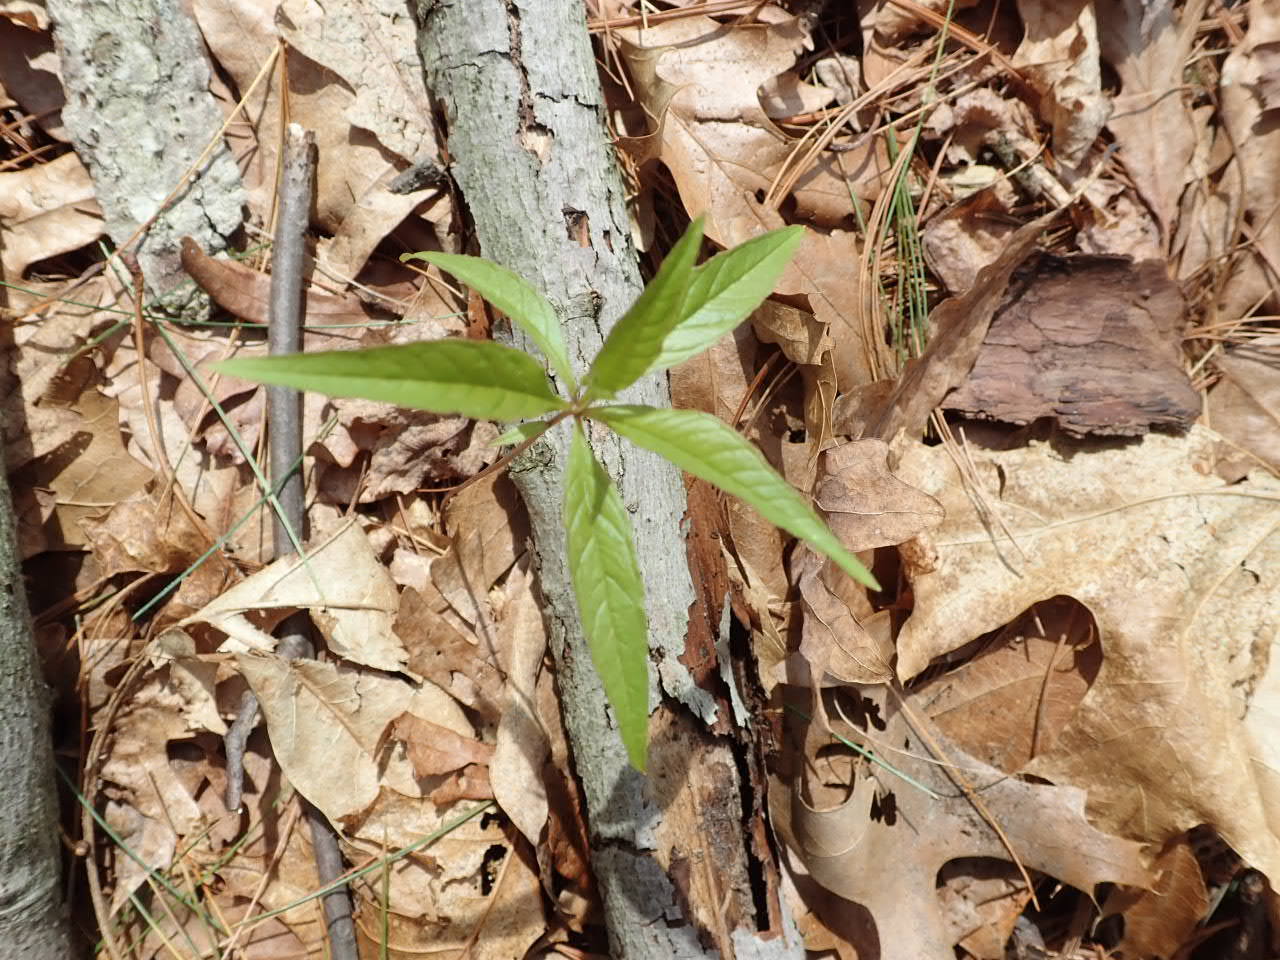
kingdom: Plantae
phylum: Tracheophyta
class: Magnoliopsida
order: Ericales
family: Primulaceae
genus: Lysimachia
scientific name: Lysimachia borealis
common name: American starflower
